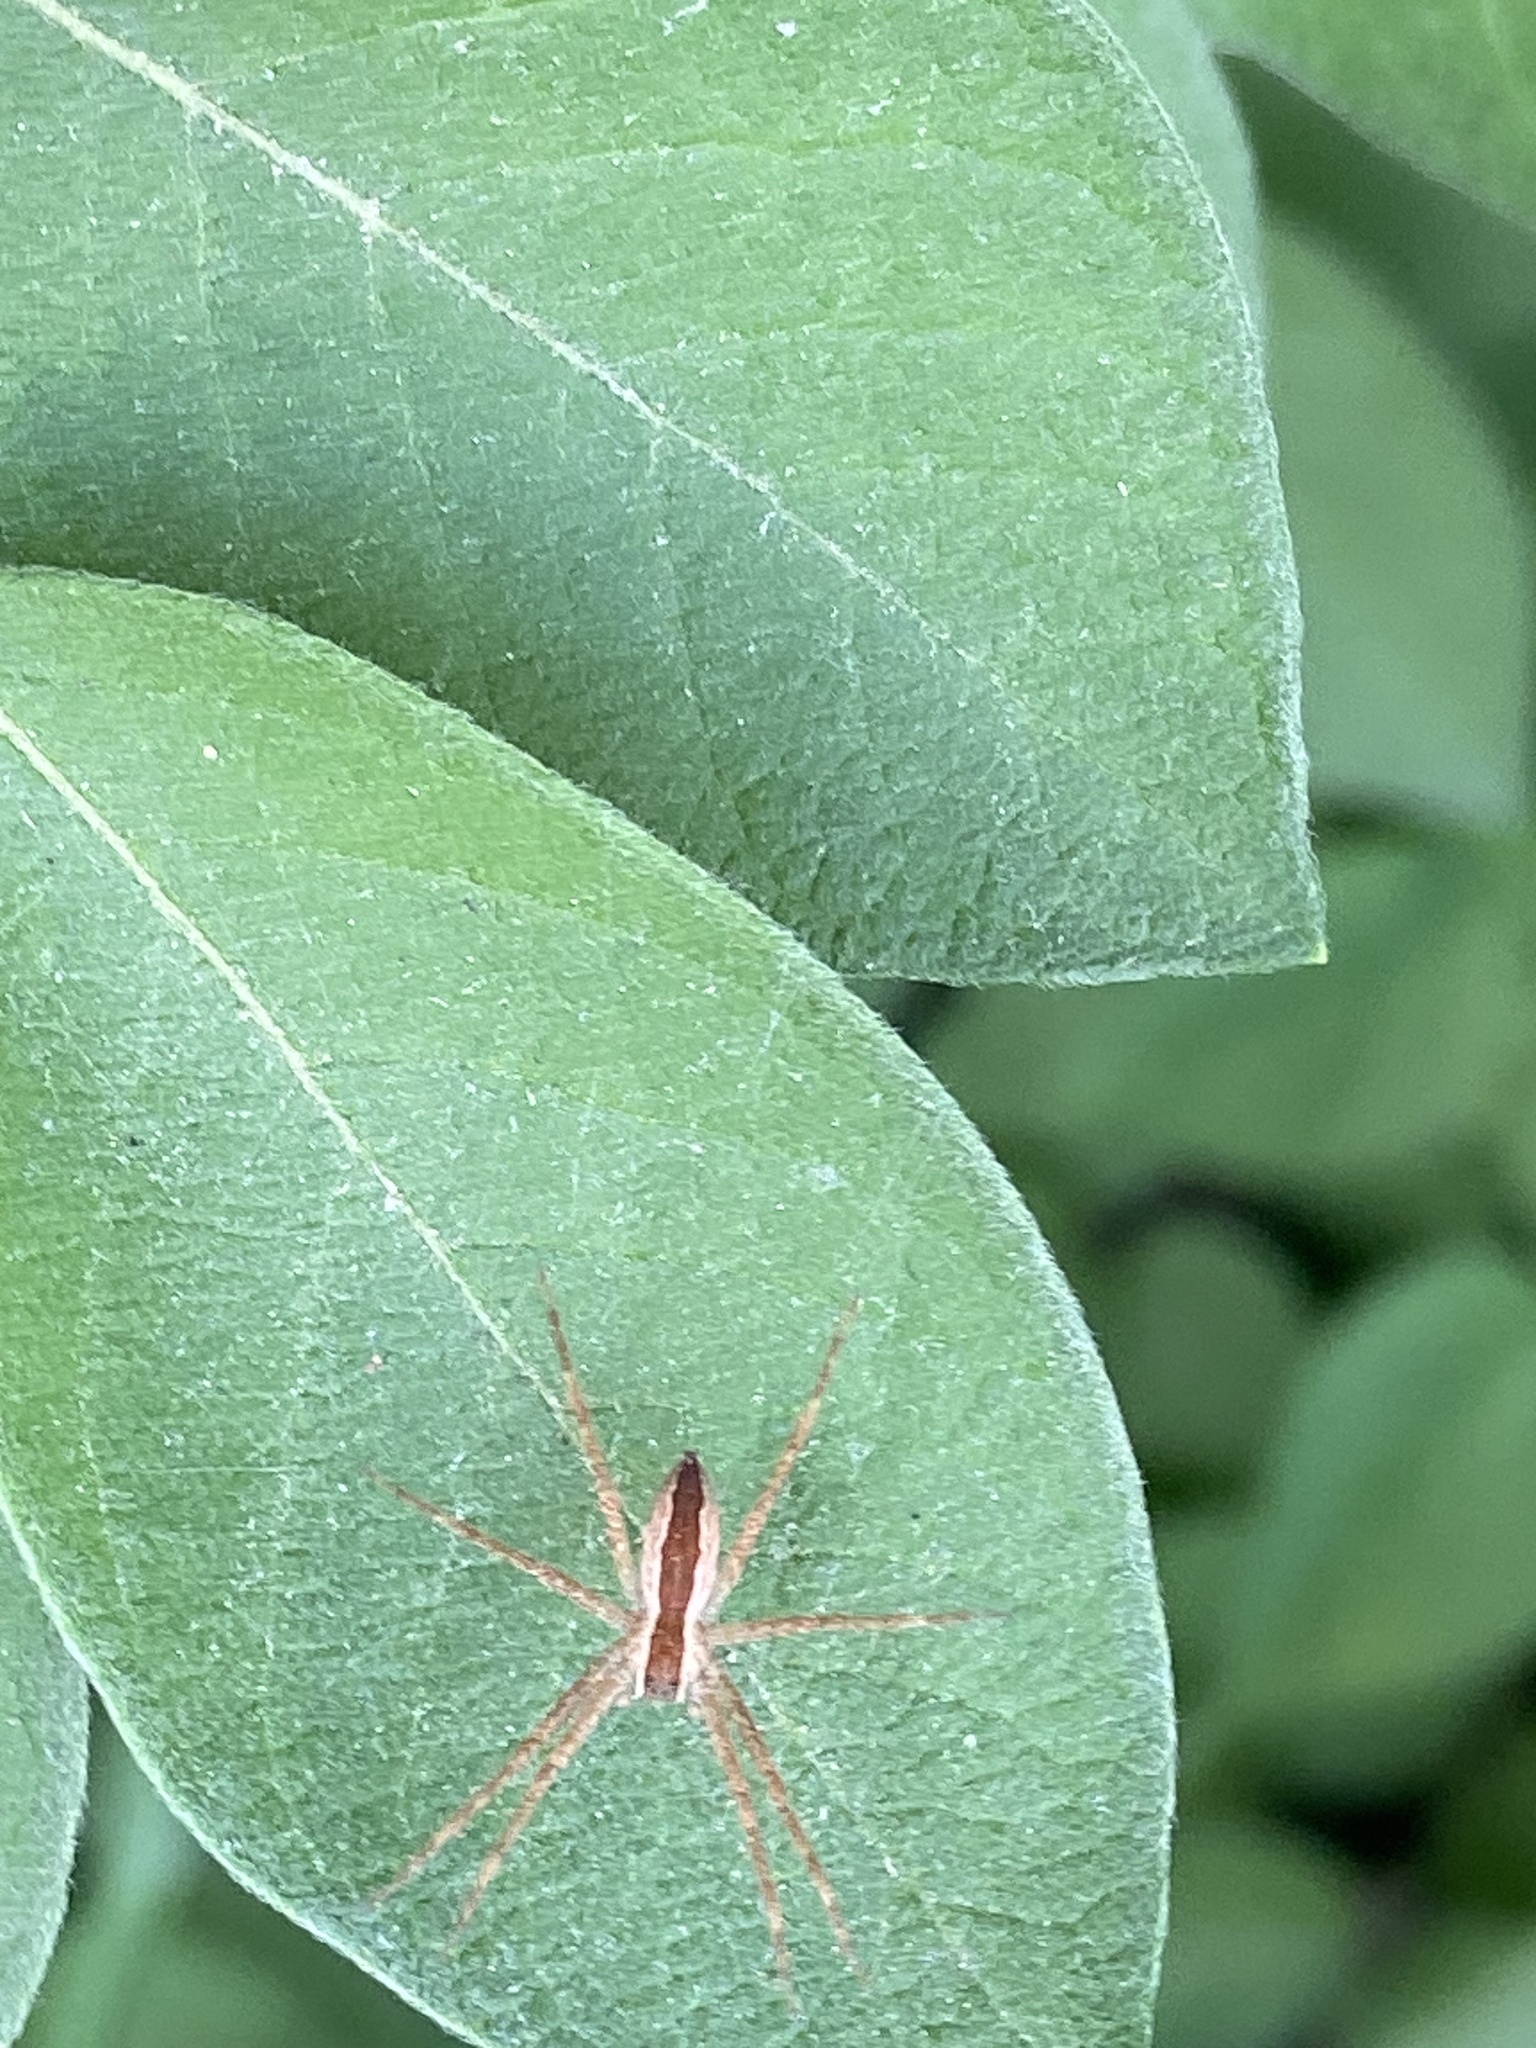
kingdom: Animalia
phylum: Arthropoda
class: Arachnida
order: Araneae
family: Pisauridae
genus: Pisaurina
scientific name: Pisaurina mira
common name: American nursery web spider
